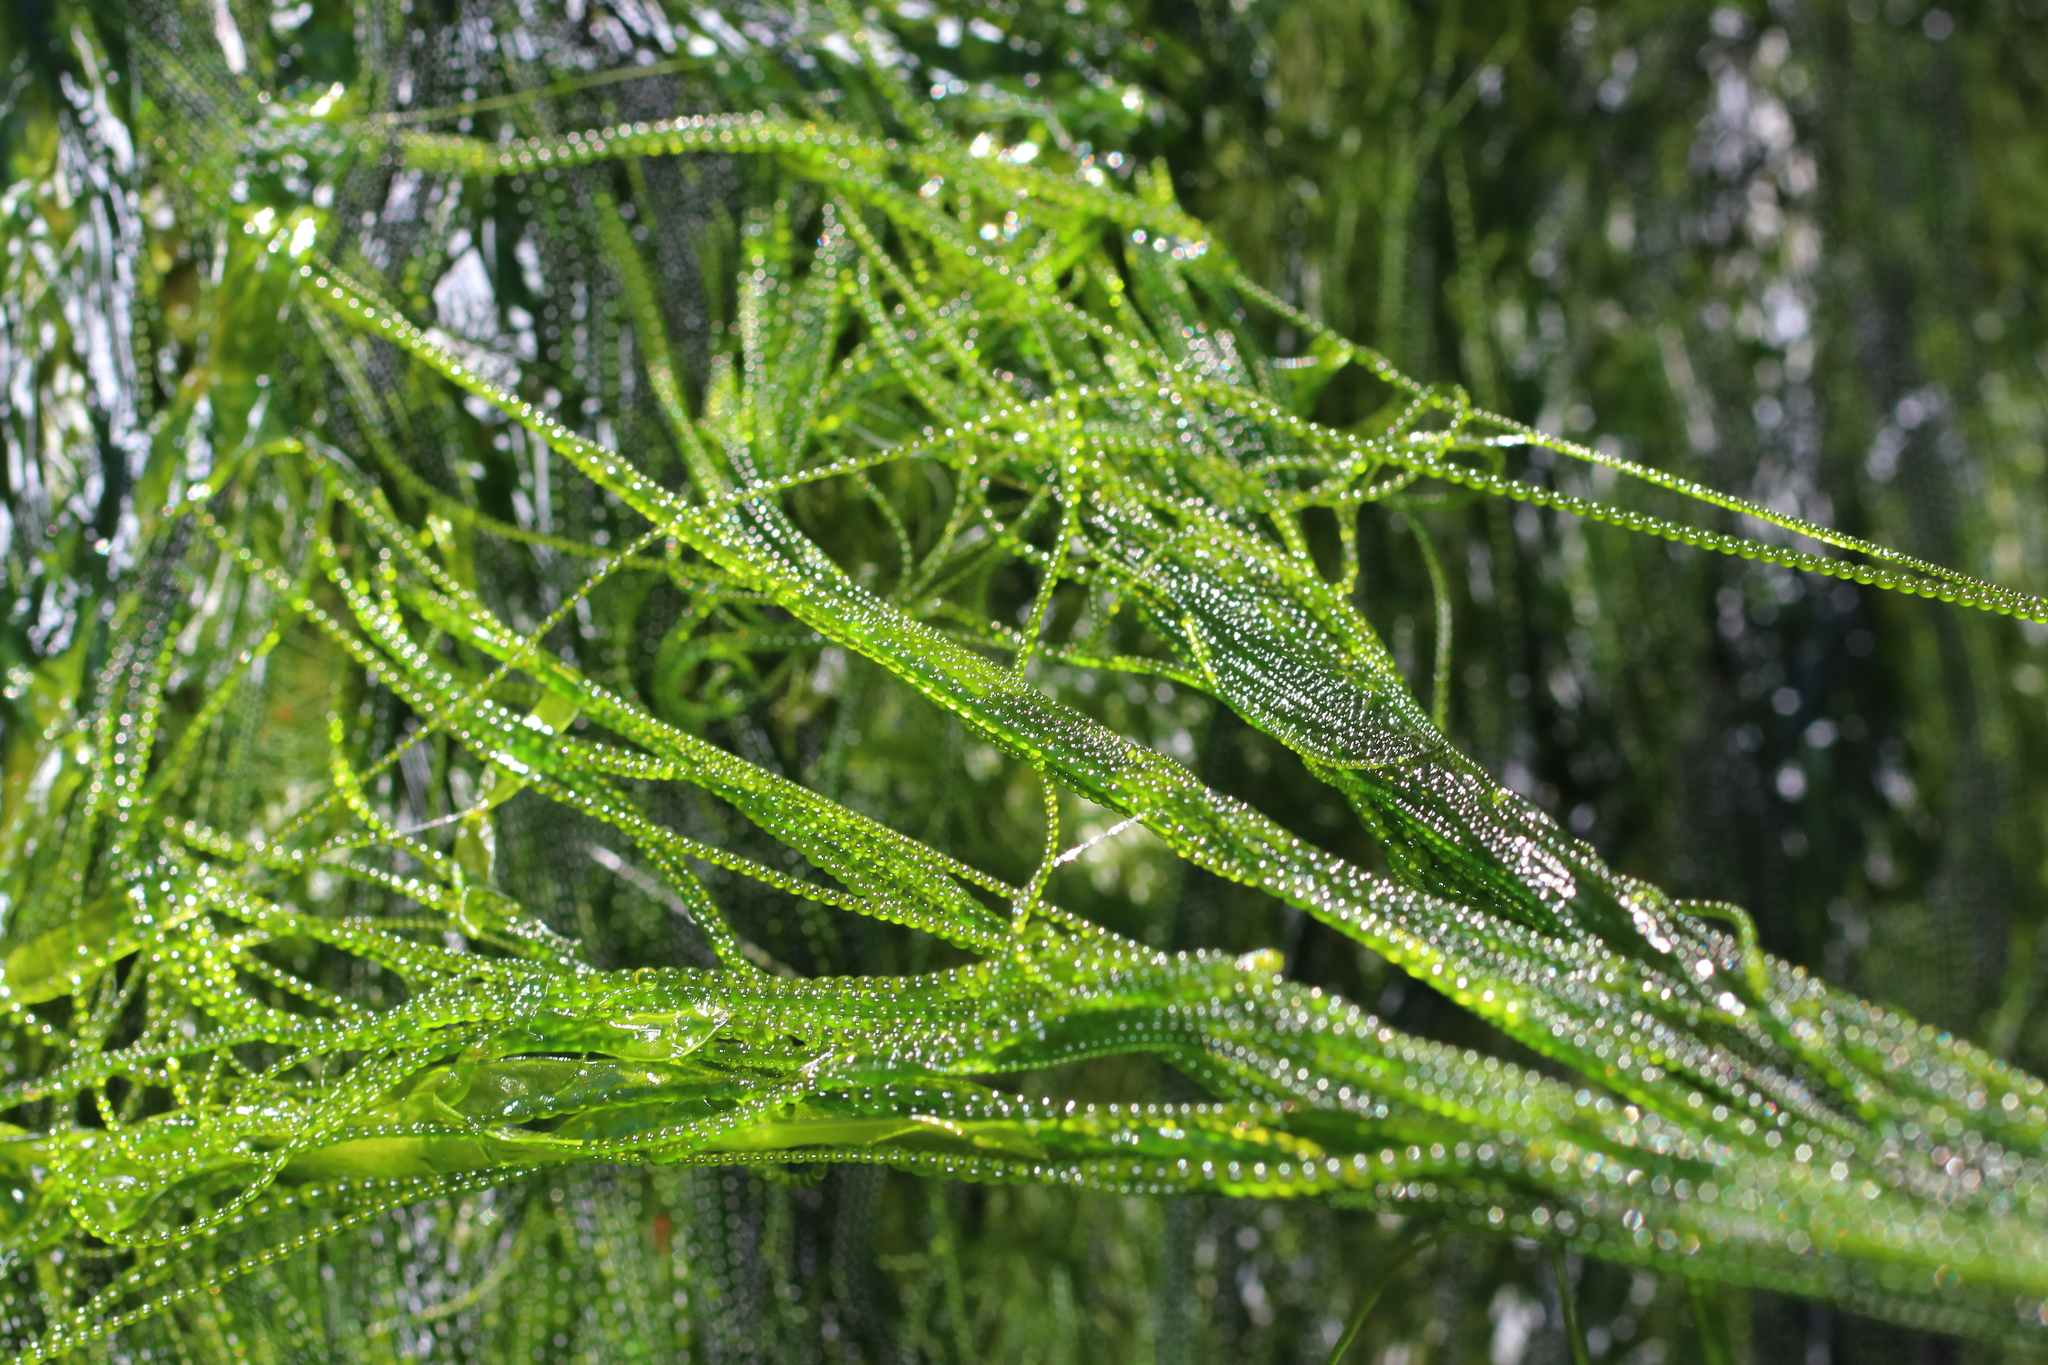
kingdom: Plantae
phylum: Chlorophyta
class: Ulvophyceae
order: Ulotrichales
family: Ulotrichaceae
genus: Urospora
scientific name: Urospora wormskioldii
